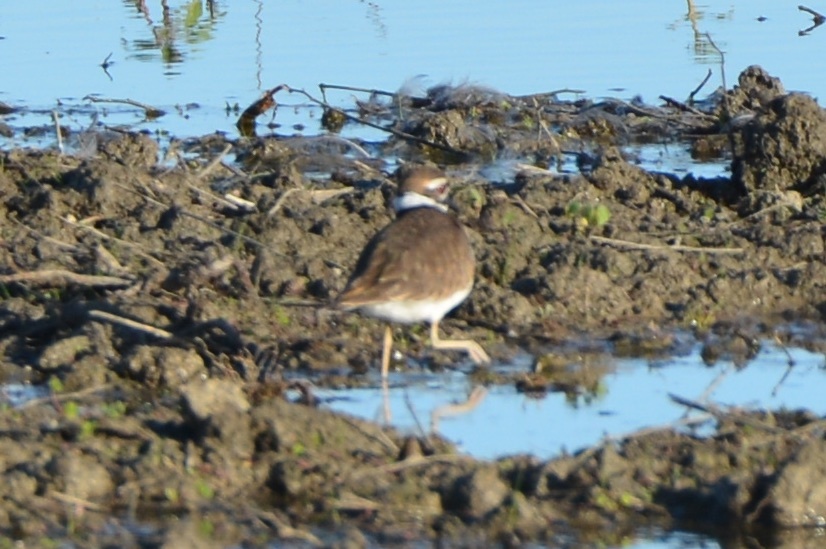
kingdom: Animalia
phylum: Chordata
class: Aves
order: Charadriiformes
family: Charadriidae
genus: Charadrius
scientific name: Charadrius vociferus
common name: Killdeer
